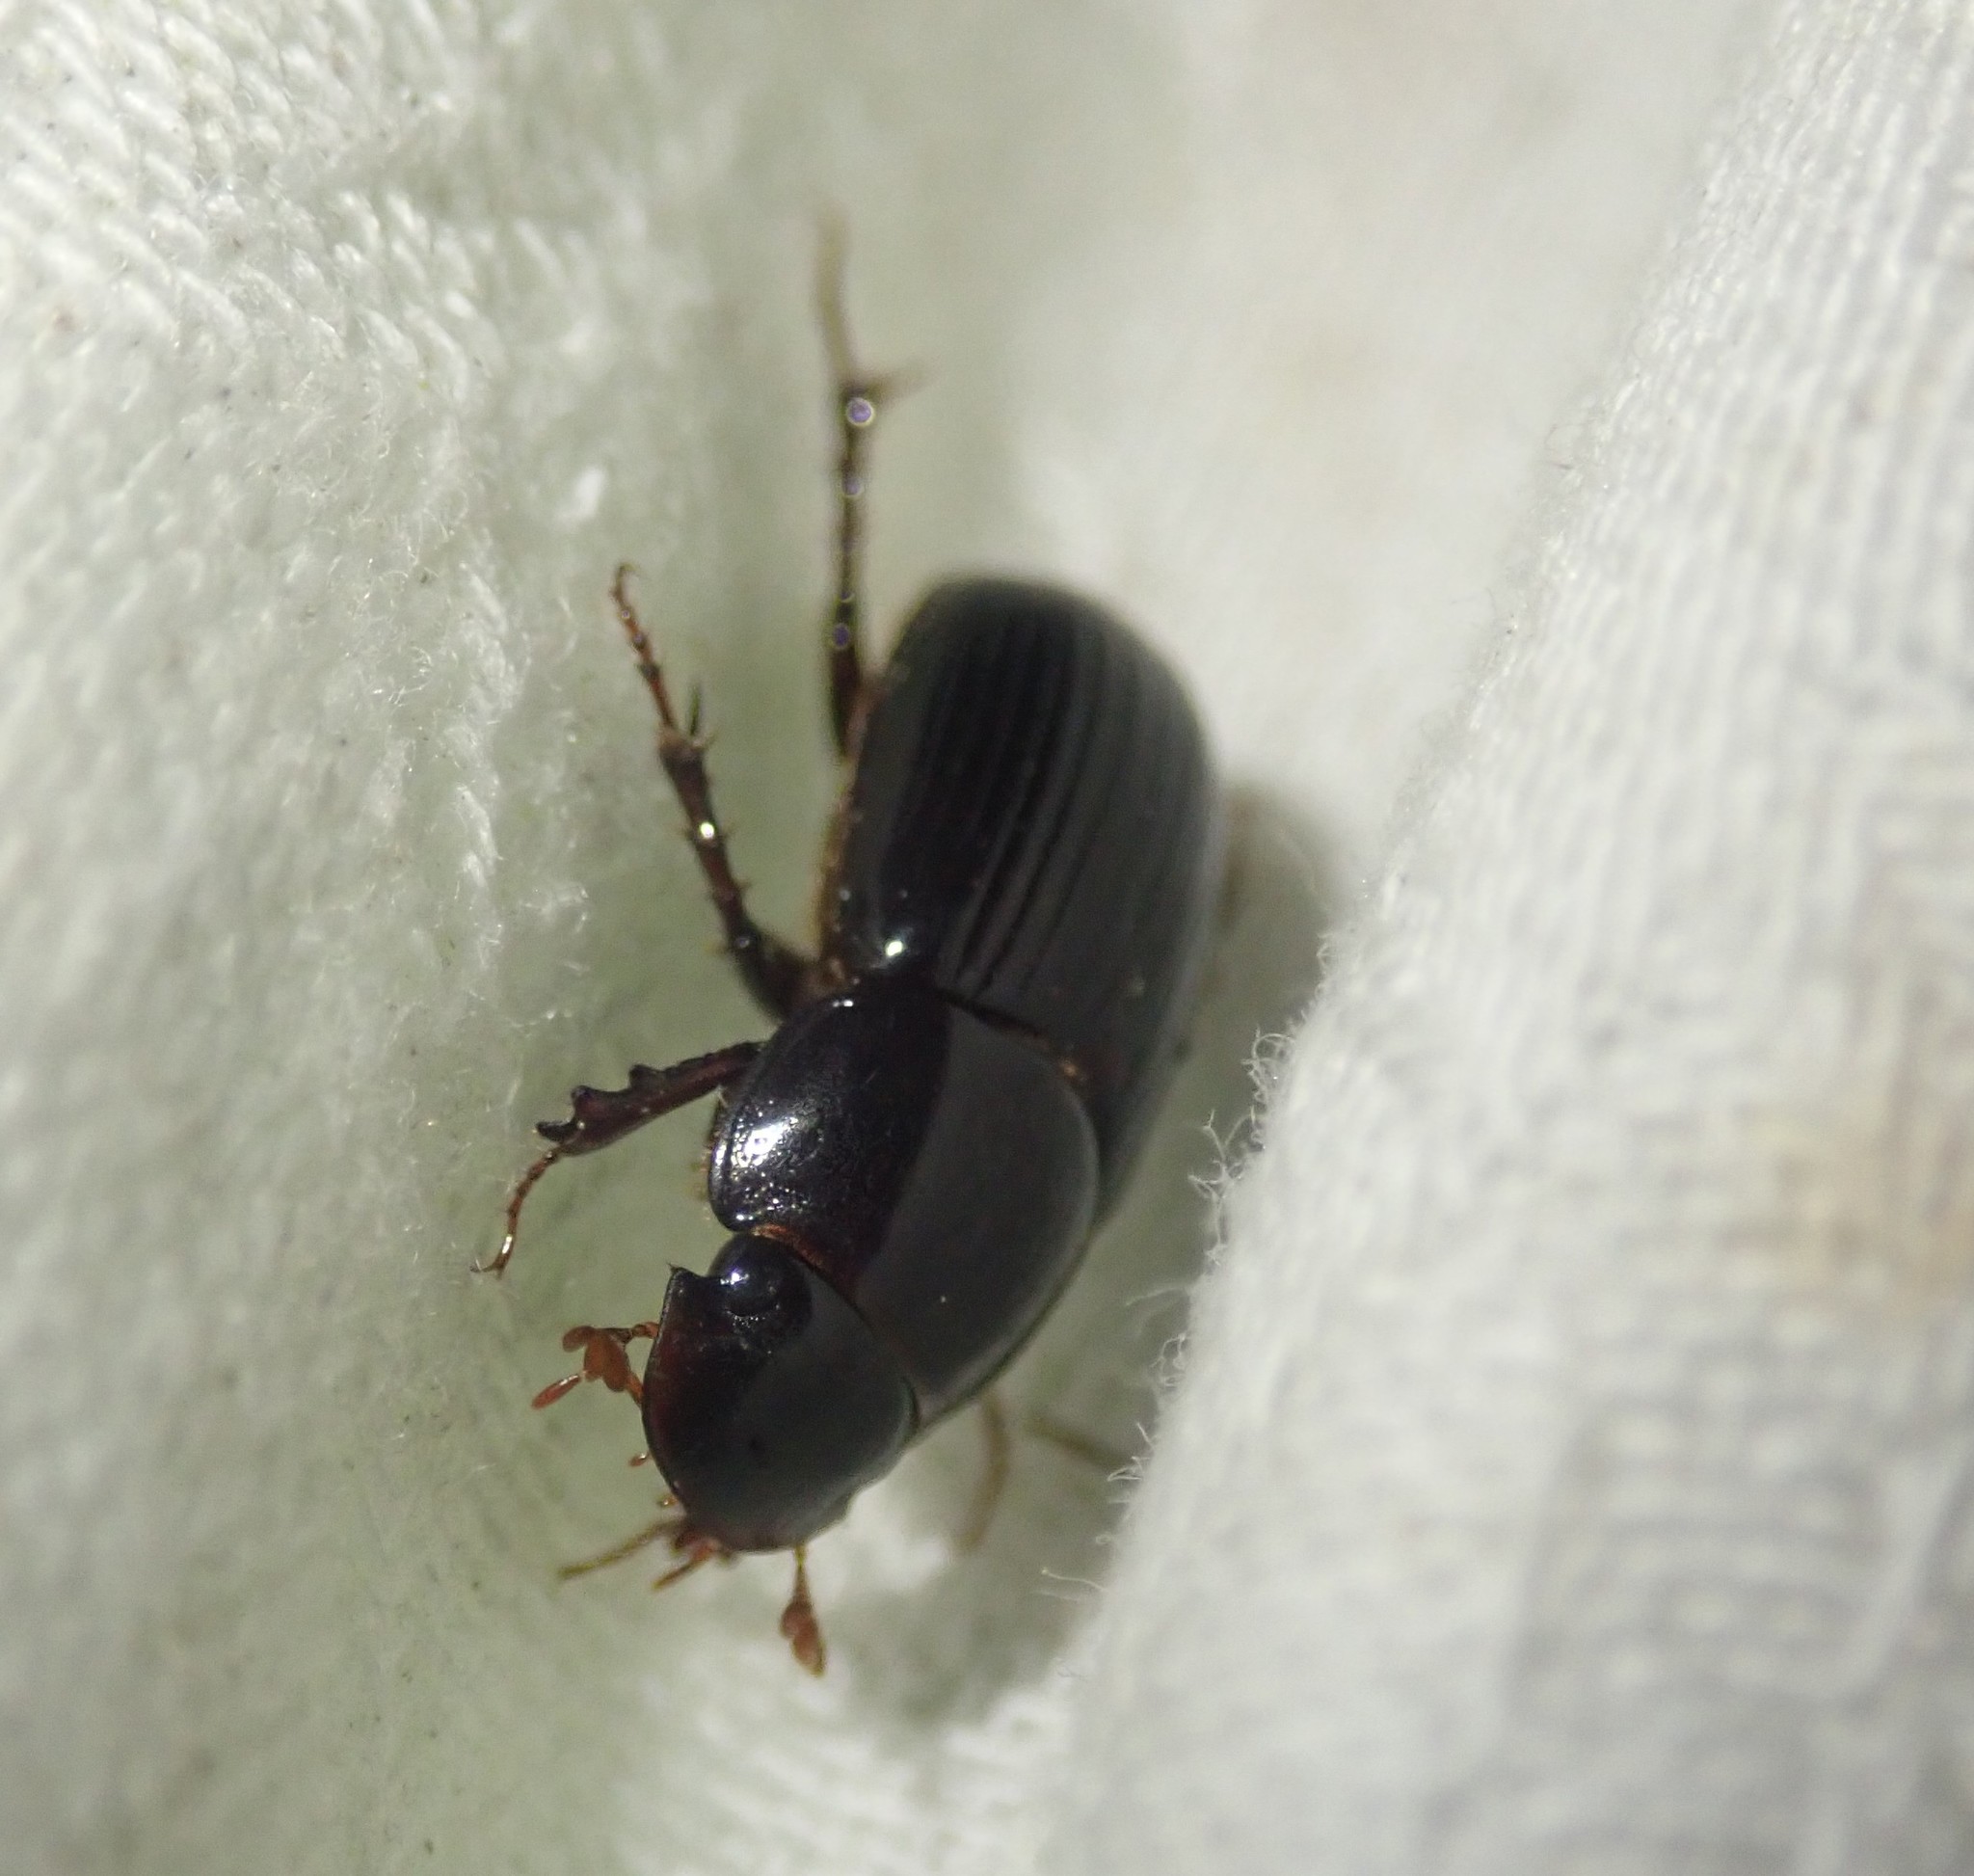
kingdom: Animalia
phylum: Arthropoda
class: Insecta
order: Coleoptera
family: Scarabaeidae
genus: Acrossus
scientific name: Acrossus rufipes
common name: Night-flying dung beetle
